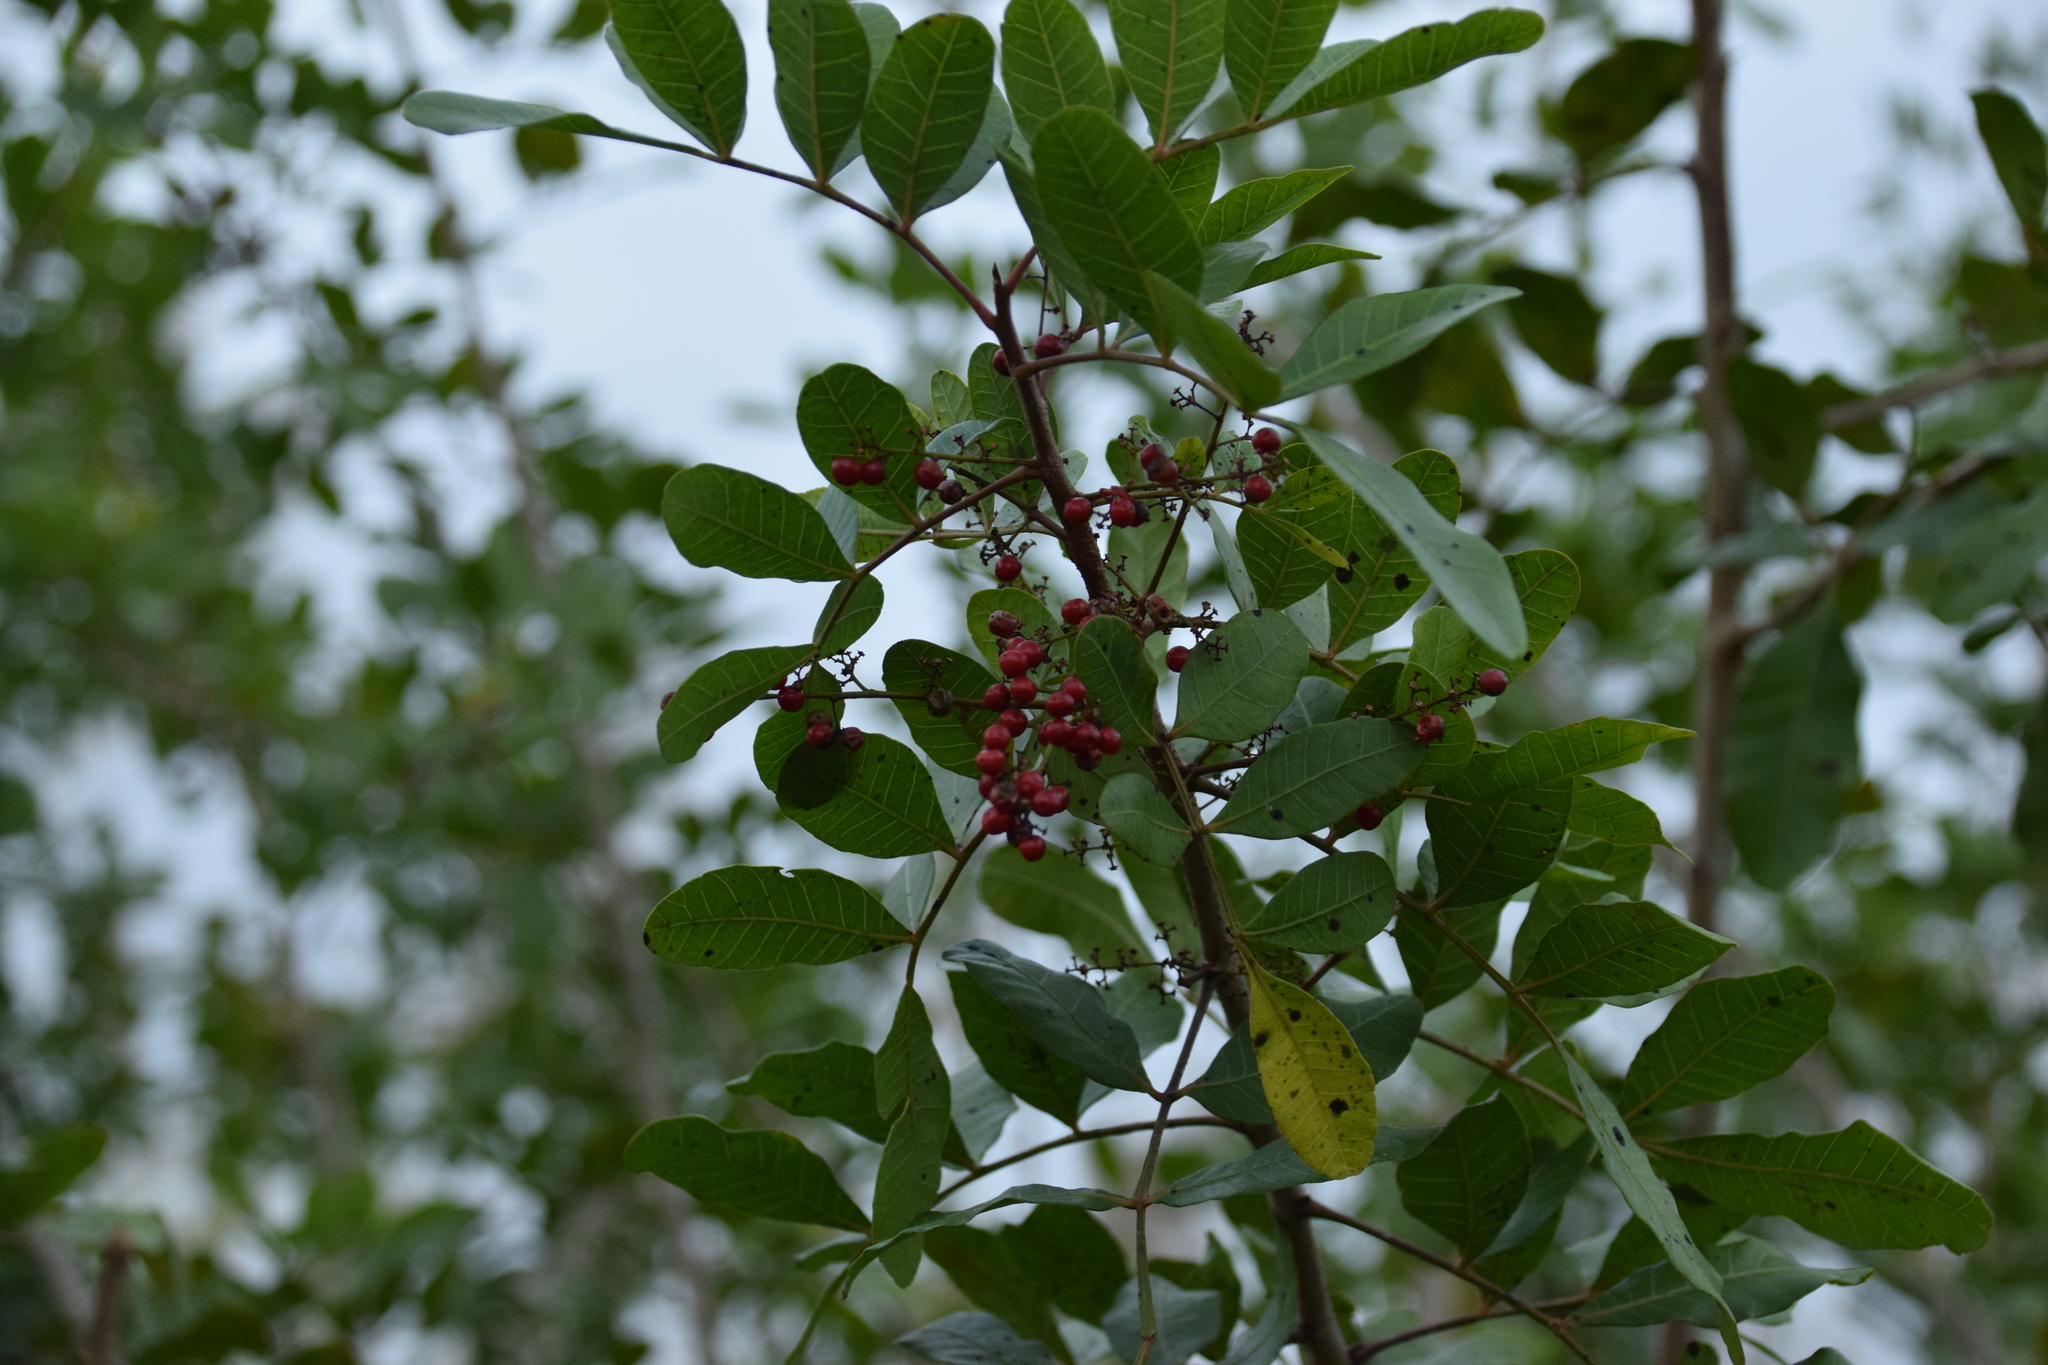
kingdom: Plantae
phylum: Tracheophyta
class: Magnoliopsida
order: Sapindales
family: Anacardiaceae
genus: Schinus
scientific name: Schinus terebinthifolia
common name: Brazilian peppertree
